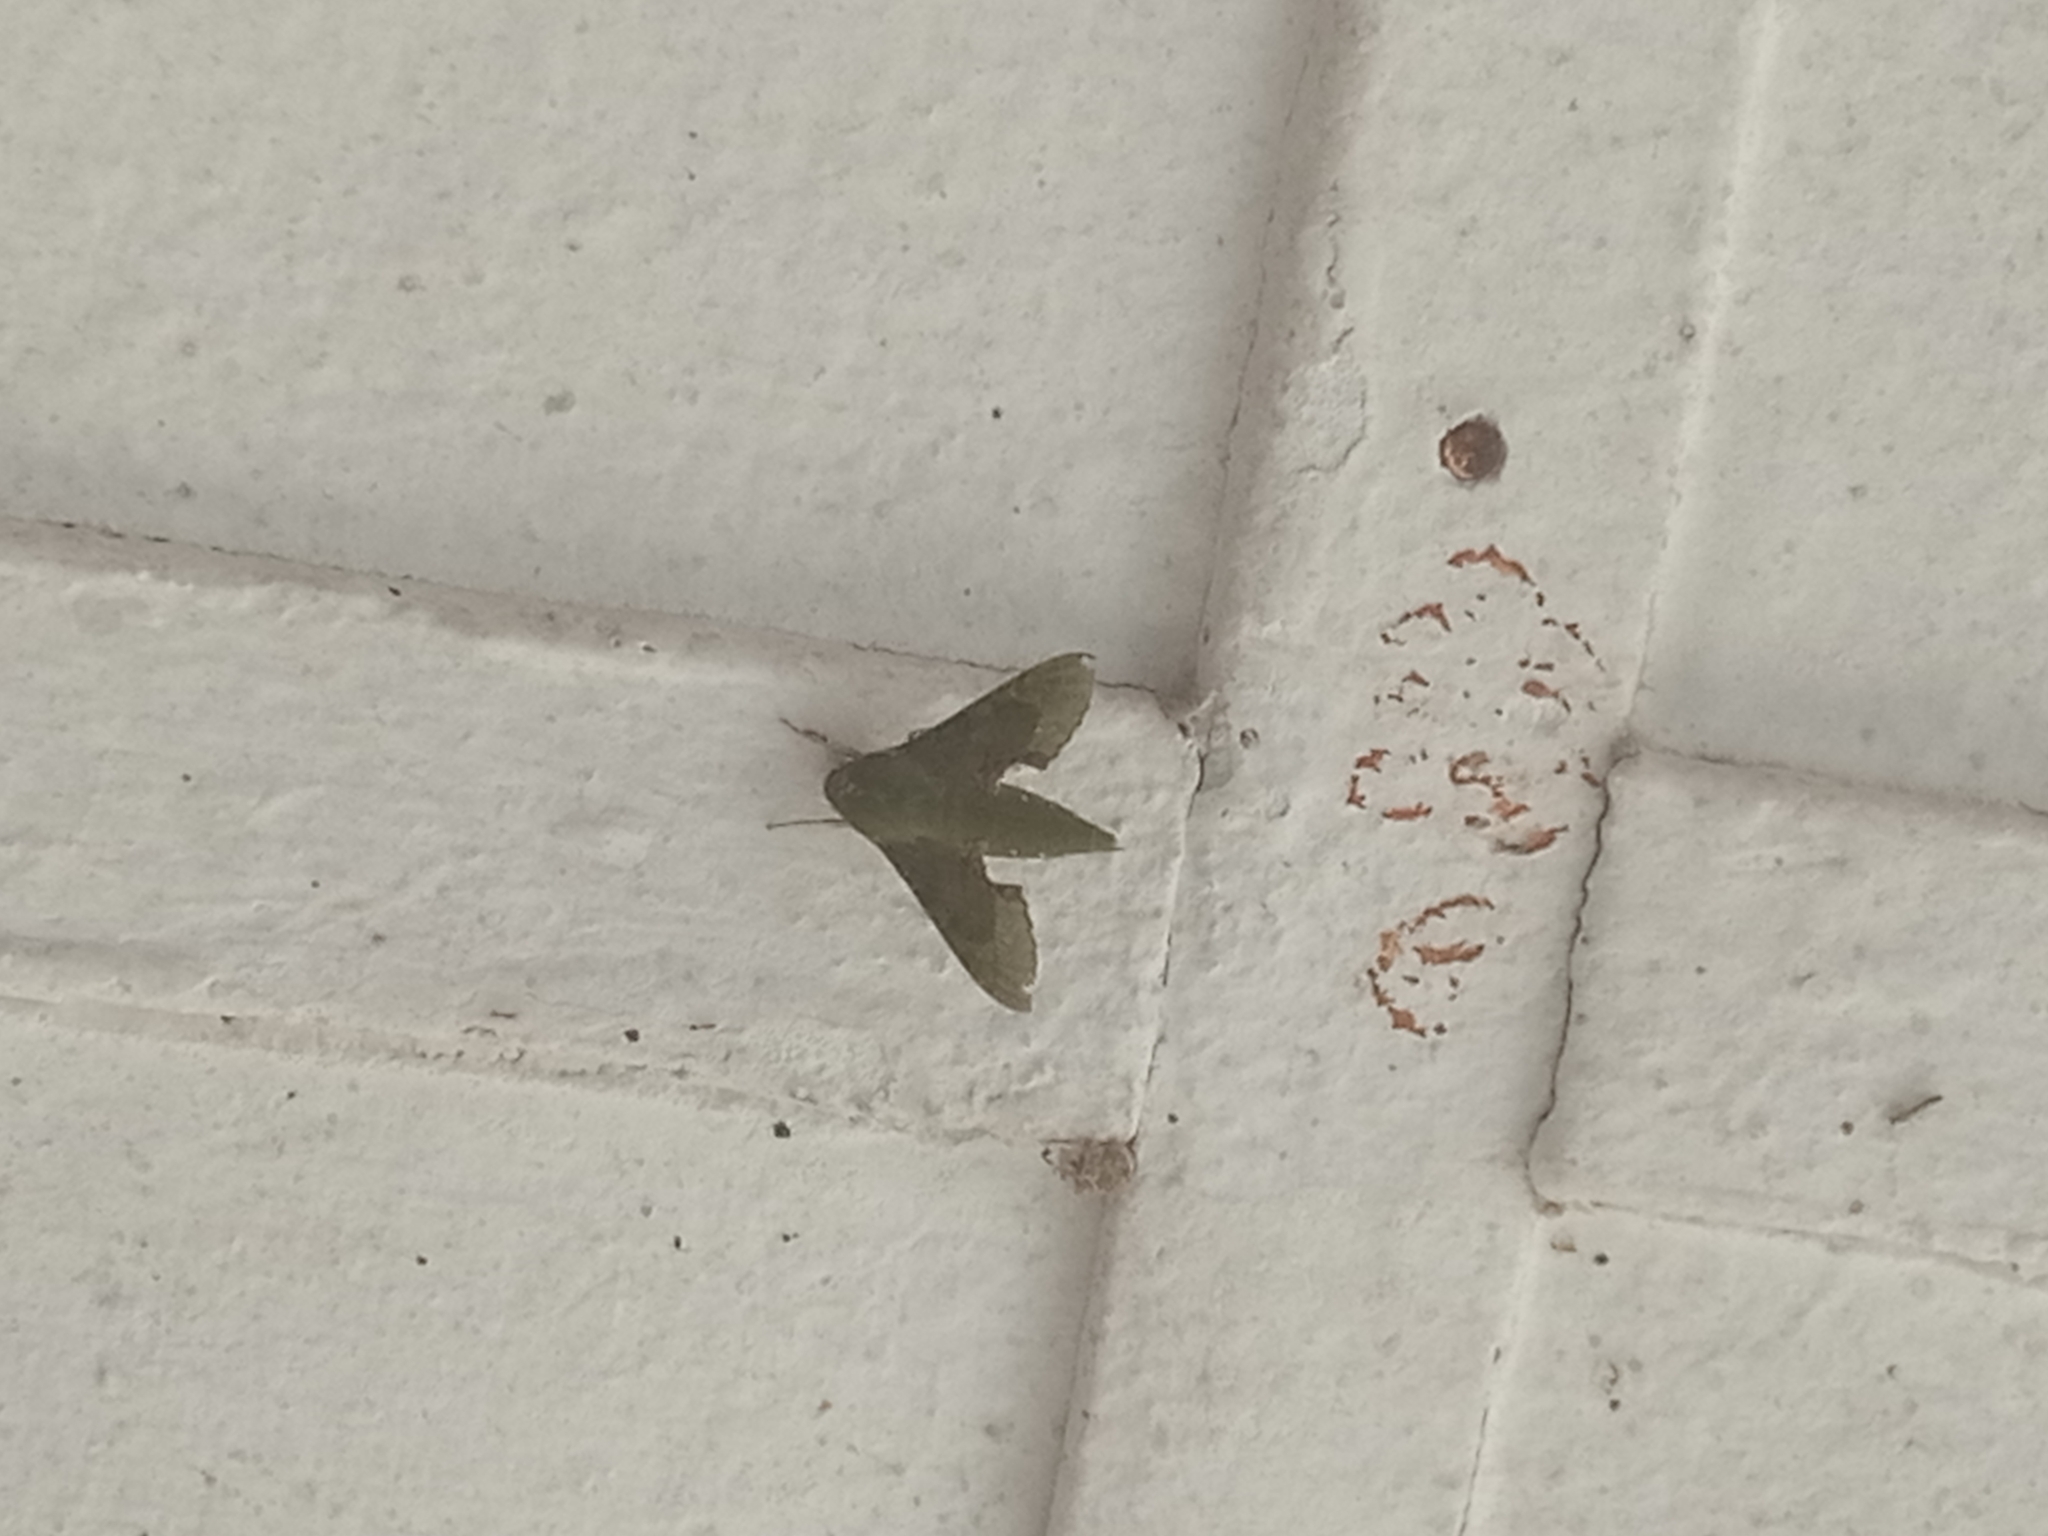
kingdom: Animalia
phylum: Arthropoda
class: Insecta
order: Lepidoptera
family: Sphingidae
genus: Basiothia
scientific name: Basiothia medea
